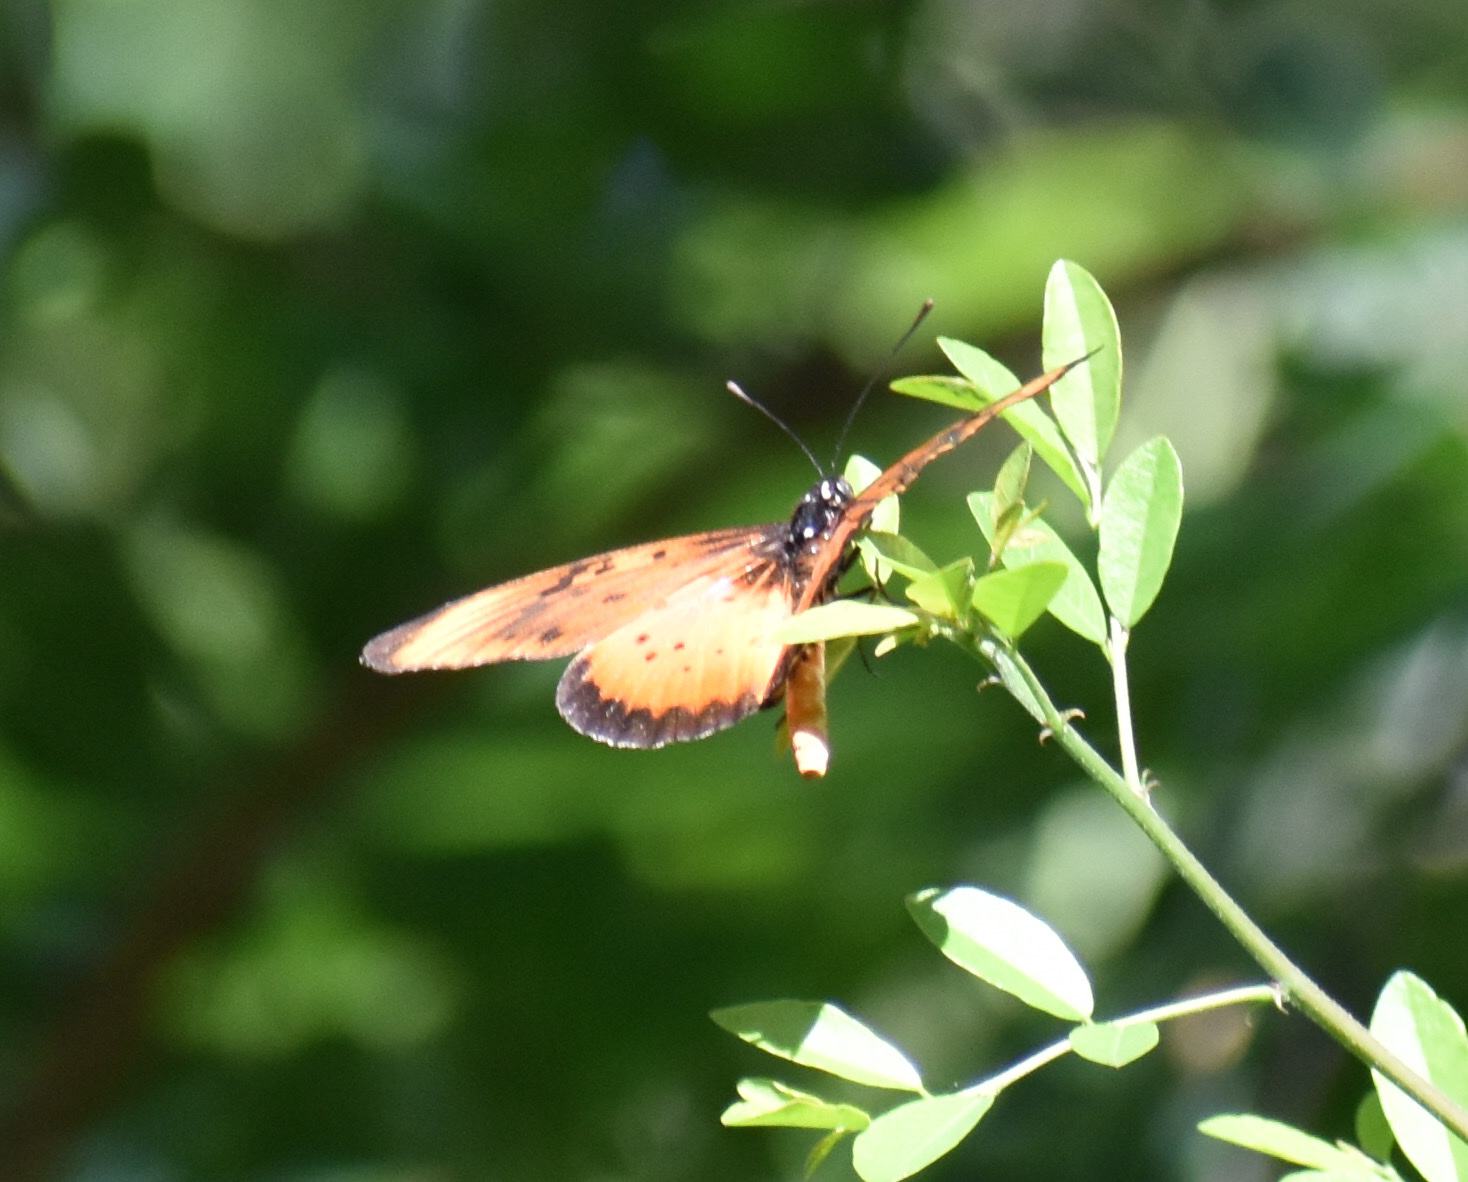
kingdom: Animalia
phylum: Arthropoda
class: Insecta
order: Lepidoptera
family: Nymphalidae
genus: Stephenia
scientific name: Stephenia
